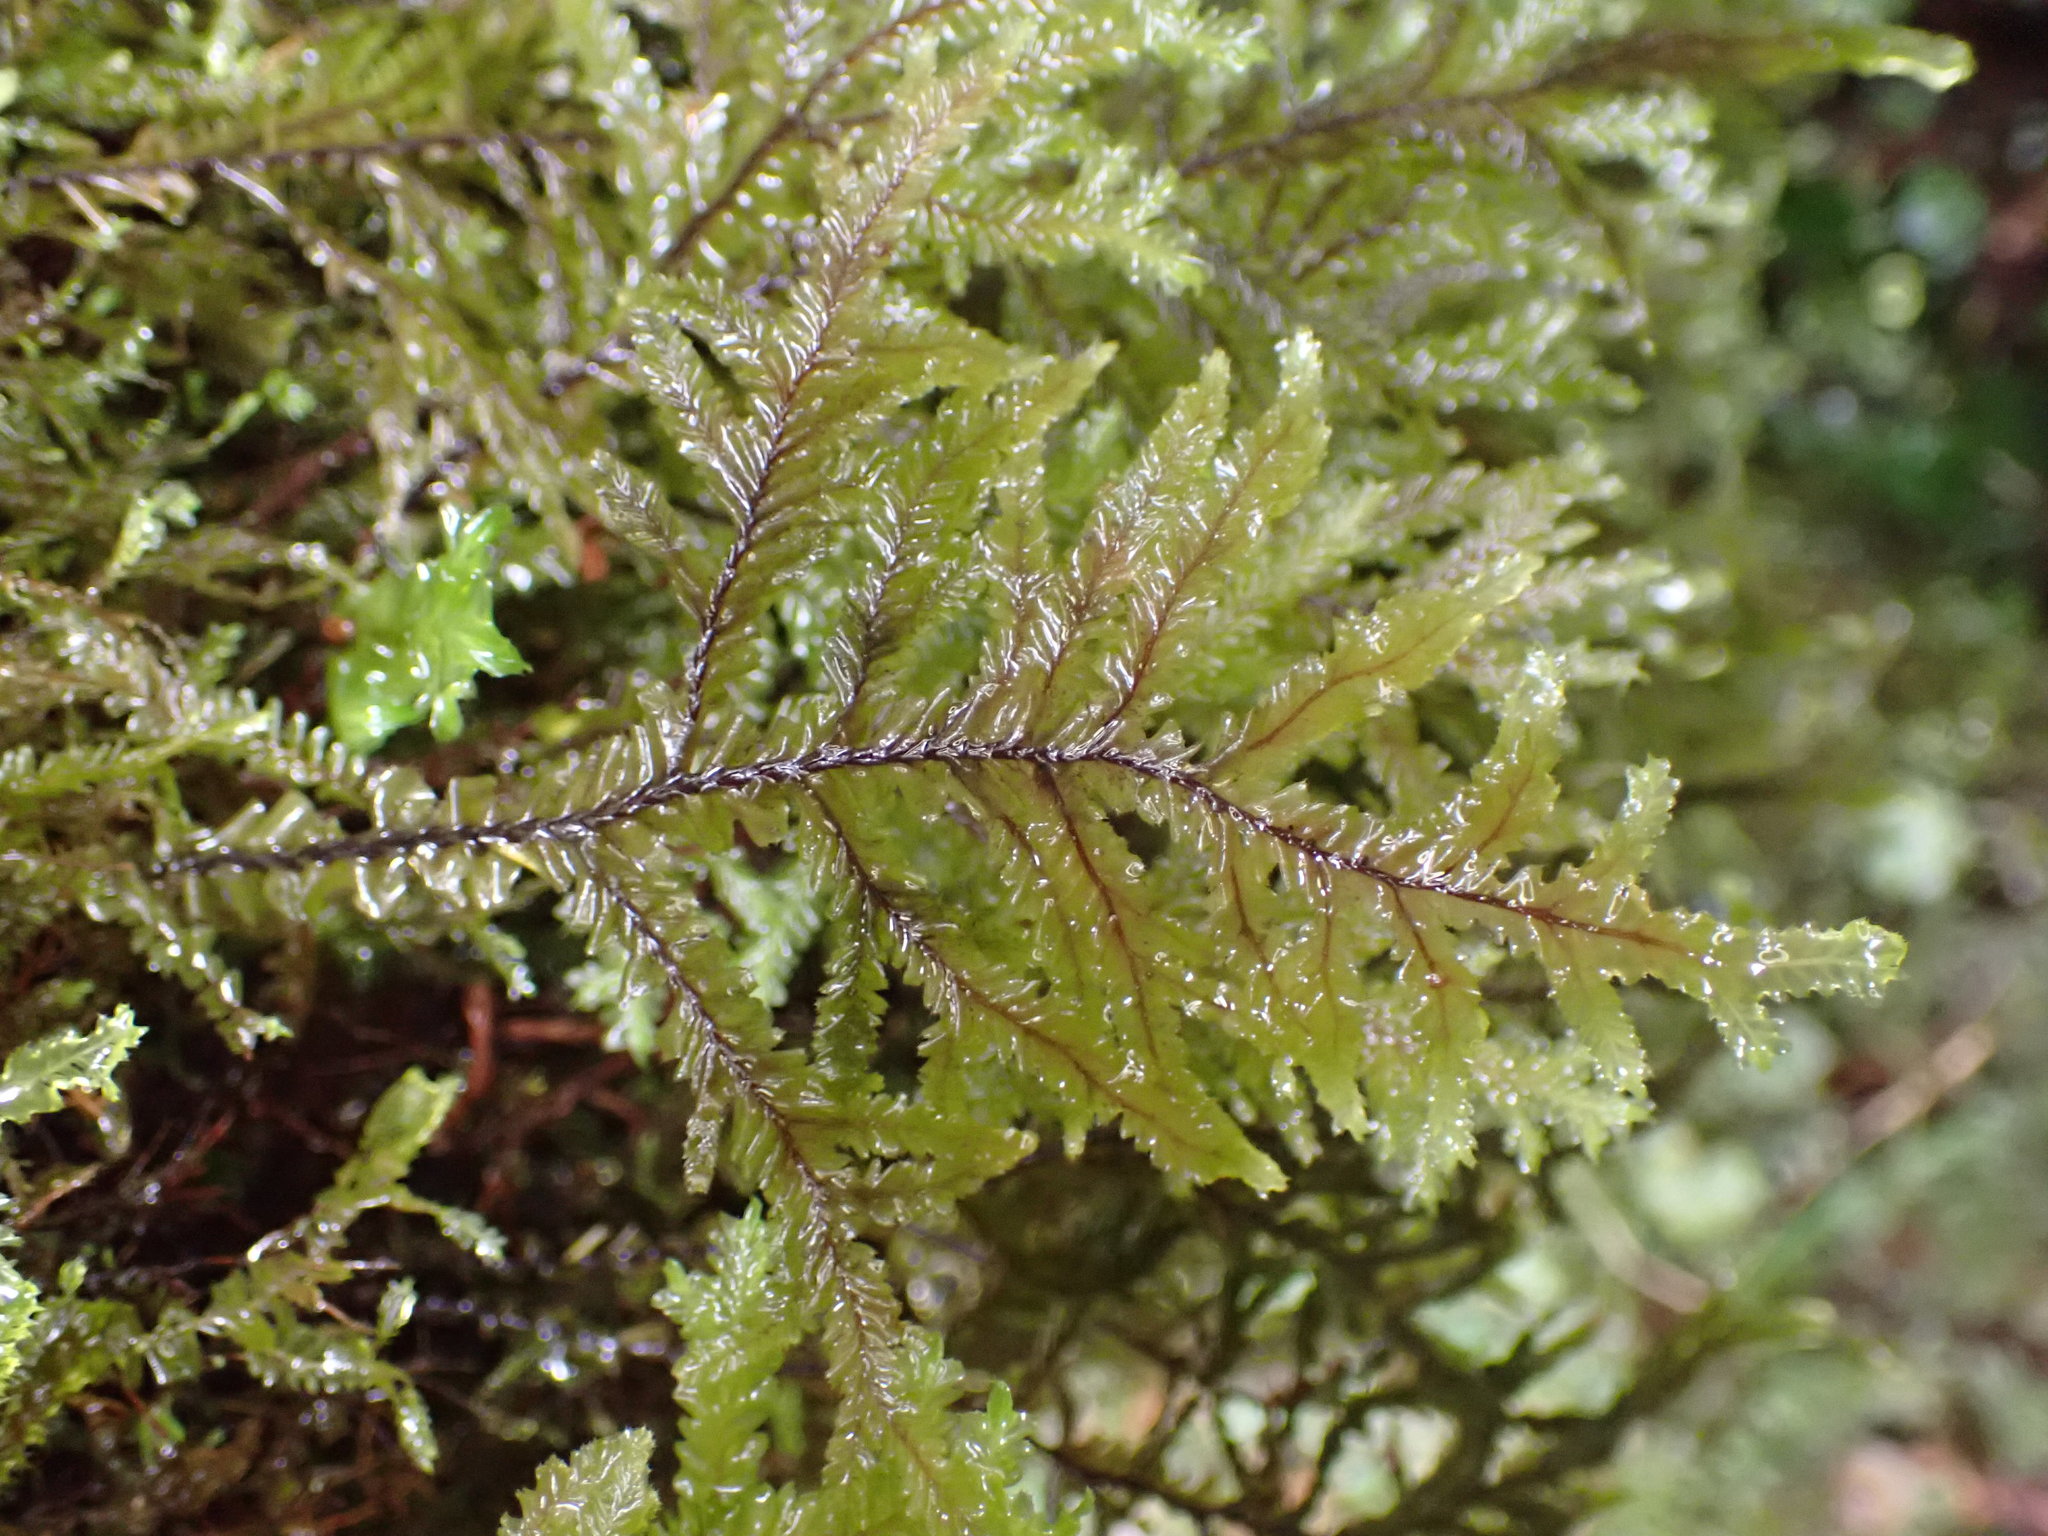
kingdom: Plantae
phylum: Marchantiophyta
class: Jungermanniopsida
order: Jungermanniales
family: Plagiochilaceae
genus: Plagiochila
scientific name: Plagiochila stephensoniana
